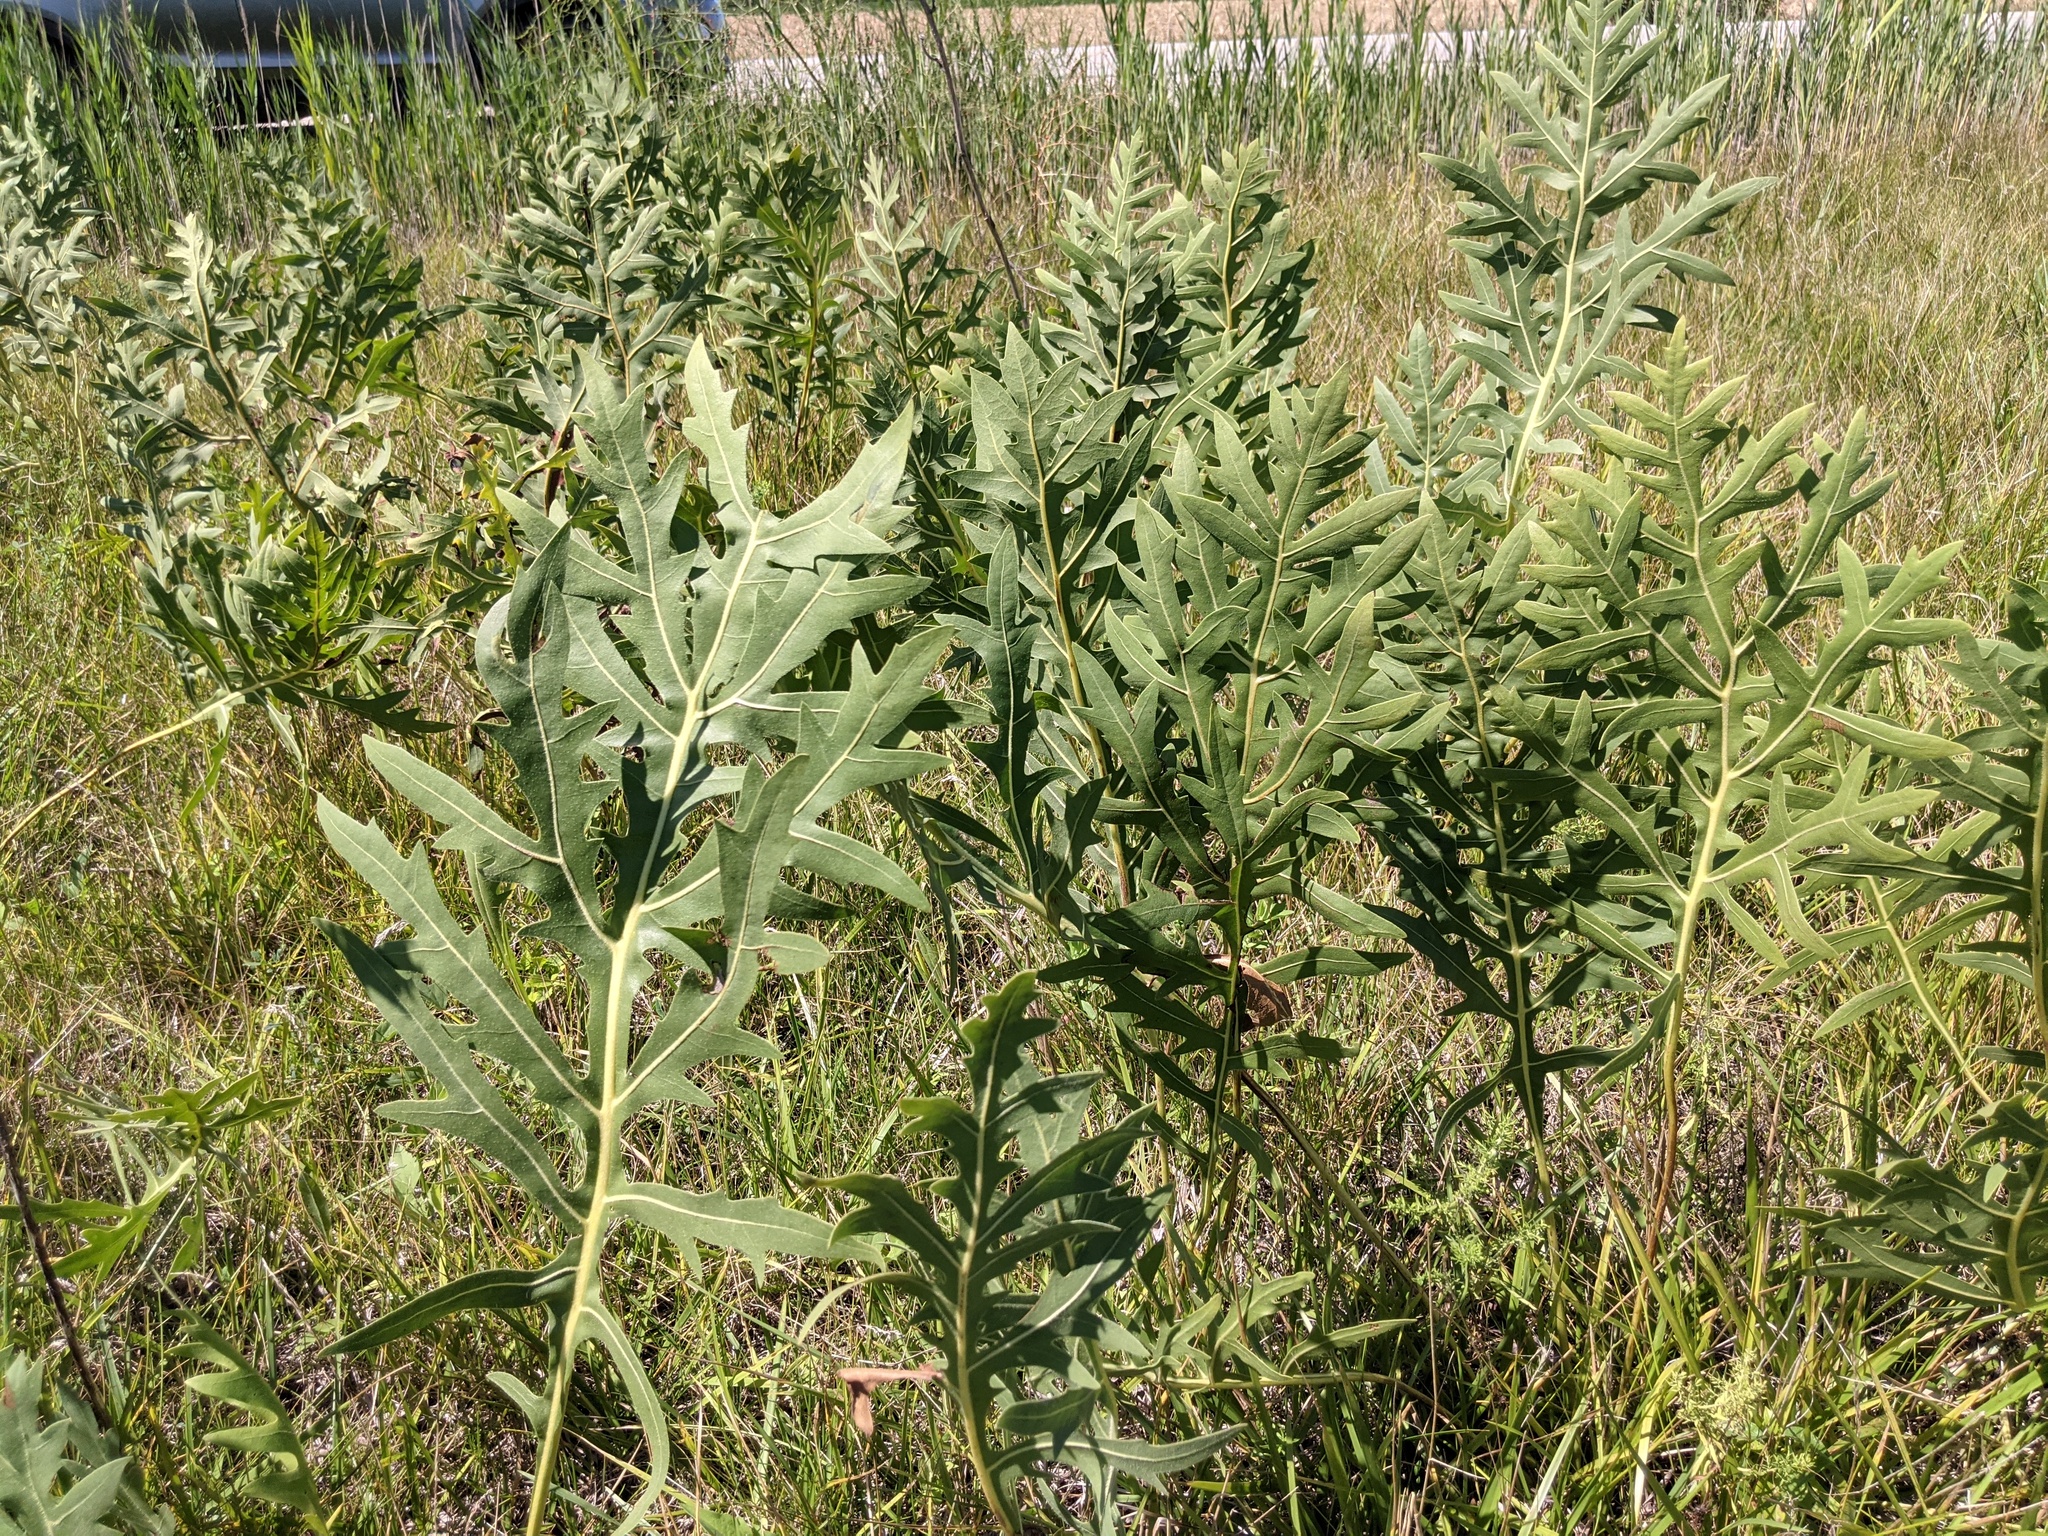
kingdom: Plantae
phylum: Tracheophyta
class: Magnoliopsida
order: Asterales
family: Asteraceae
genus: Silphium
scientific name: Silphium laciniatum
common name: Polarplant
